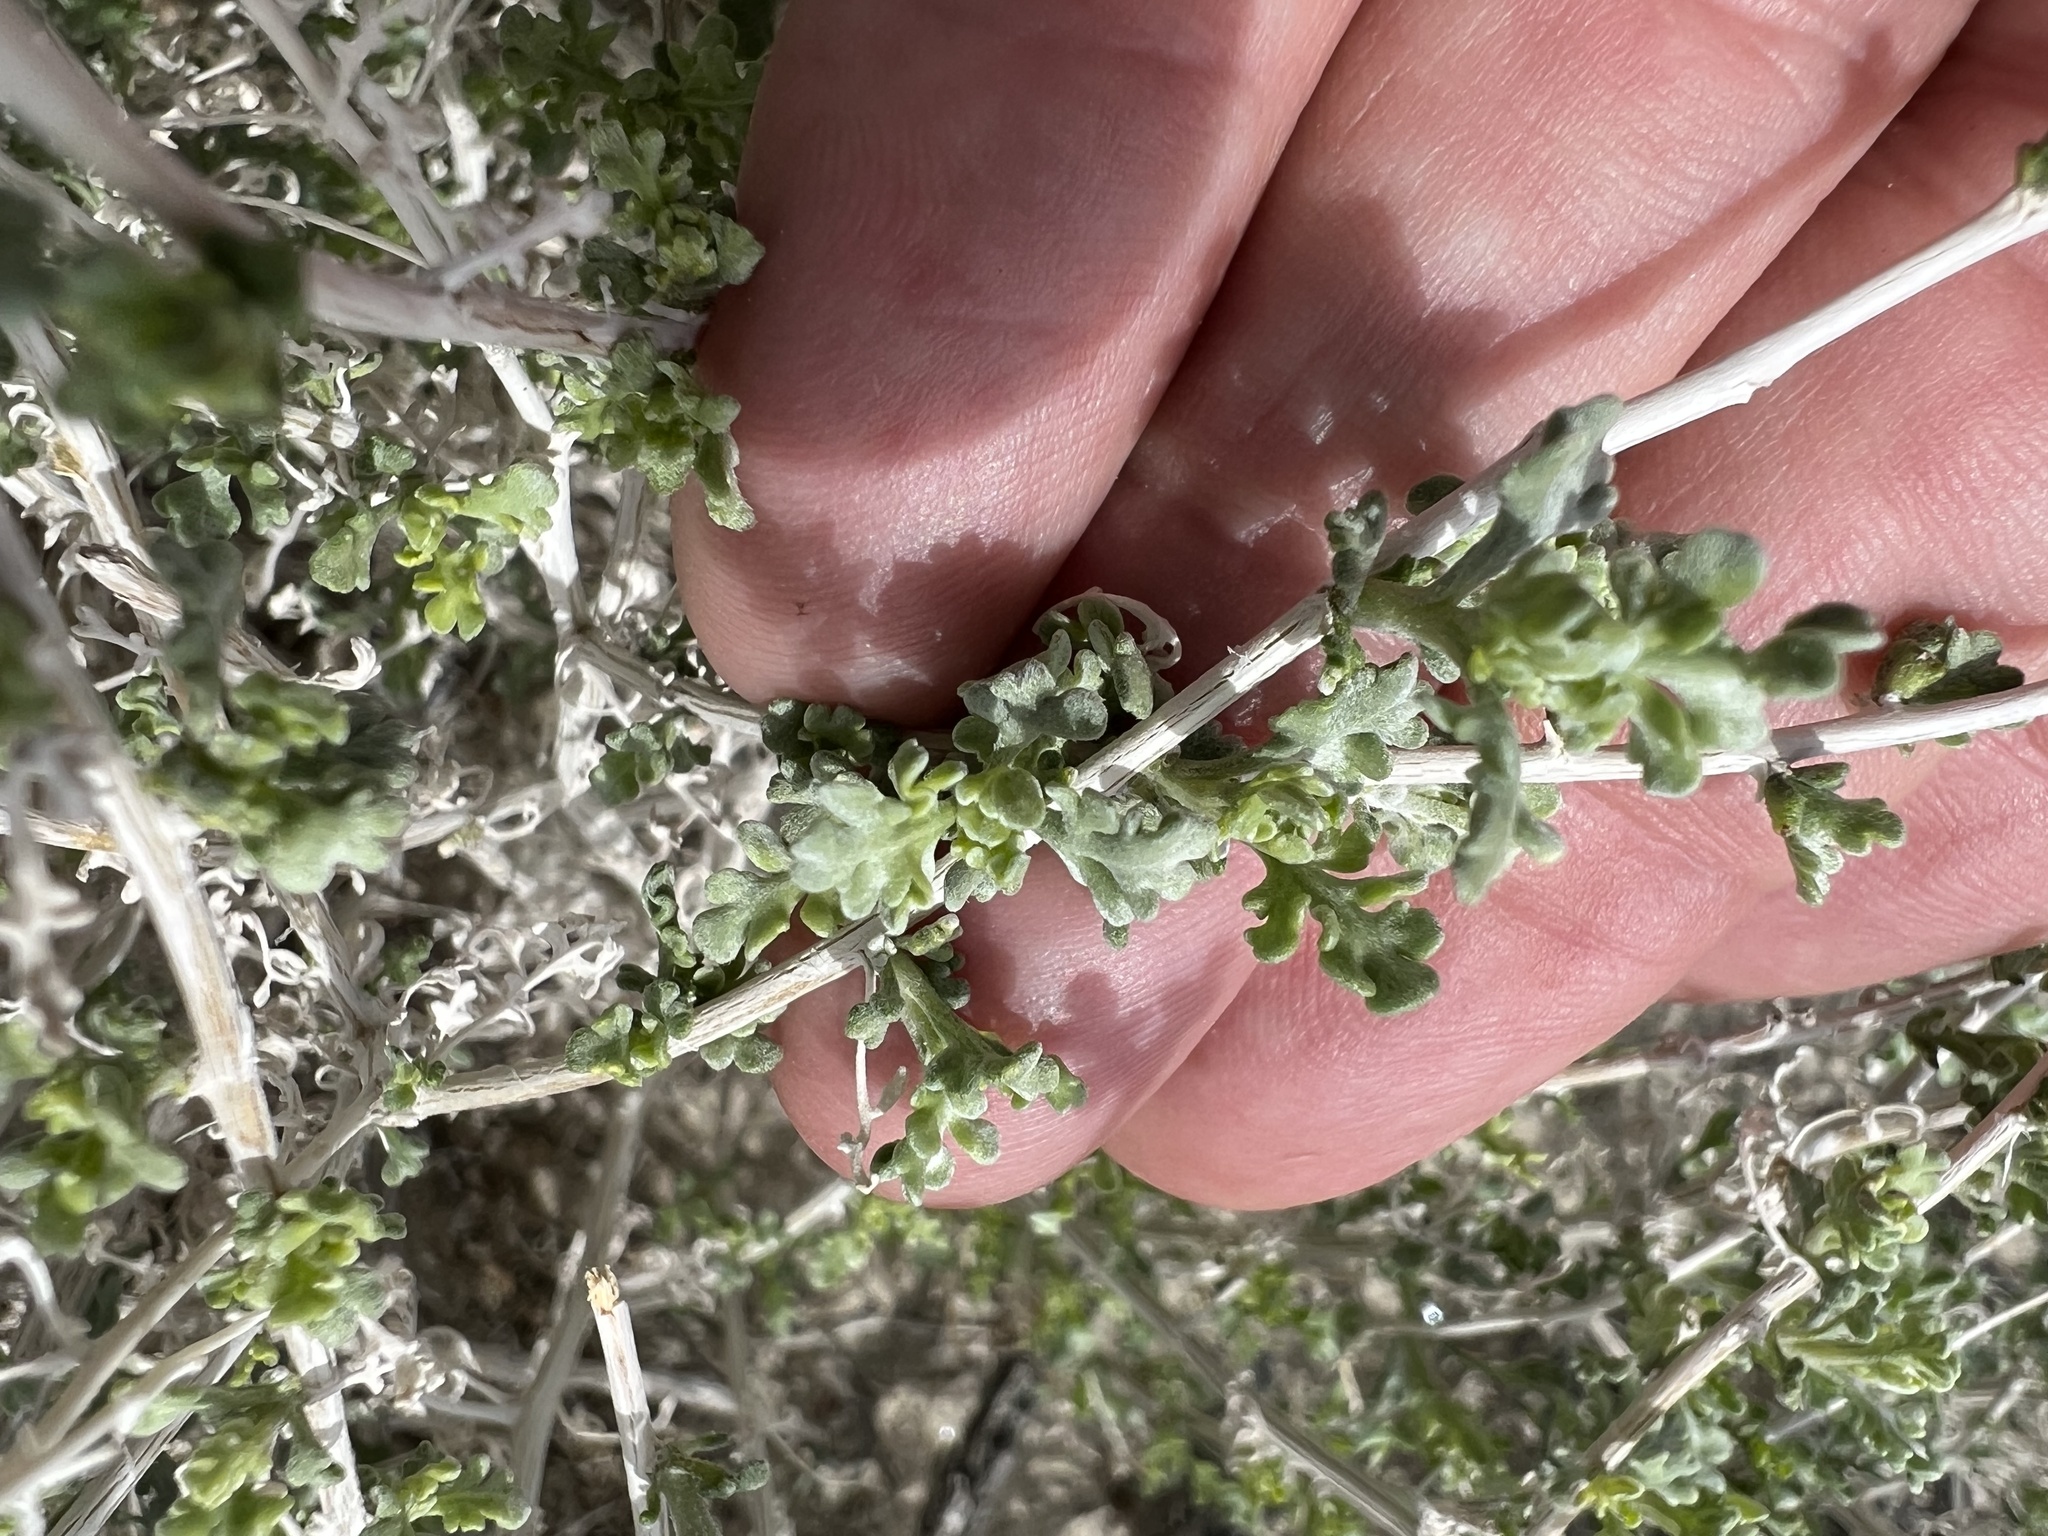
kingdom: Plantae
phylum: Tracheophyta
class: Magnoliopsida
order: Asterales
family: Asteraceae
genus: Ambrosia
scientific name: Ambrosia dumosa
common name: Bur-sage
